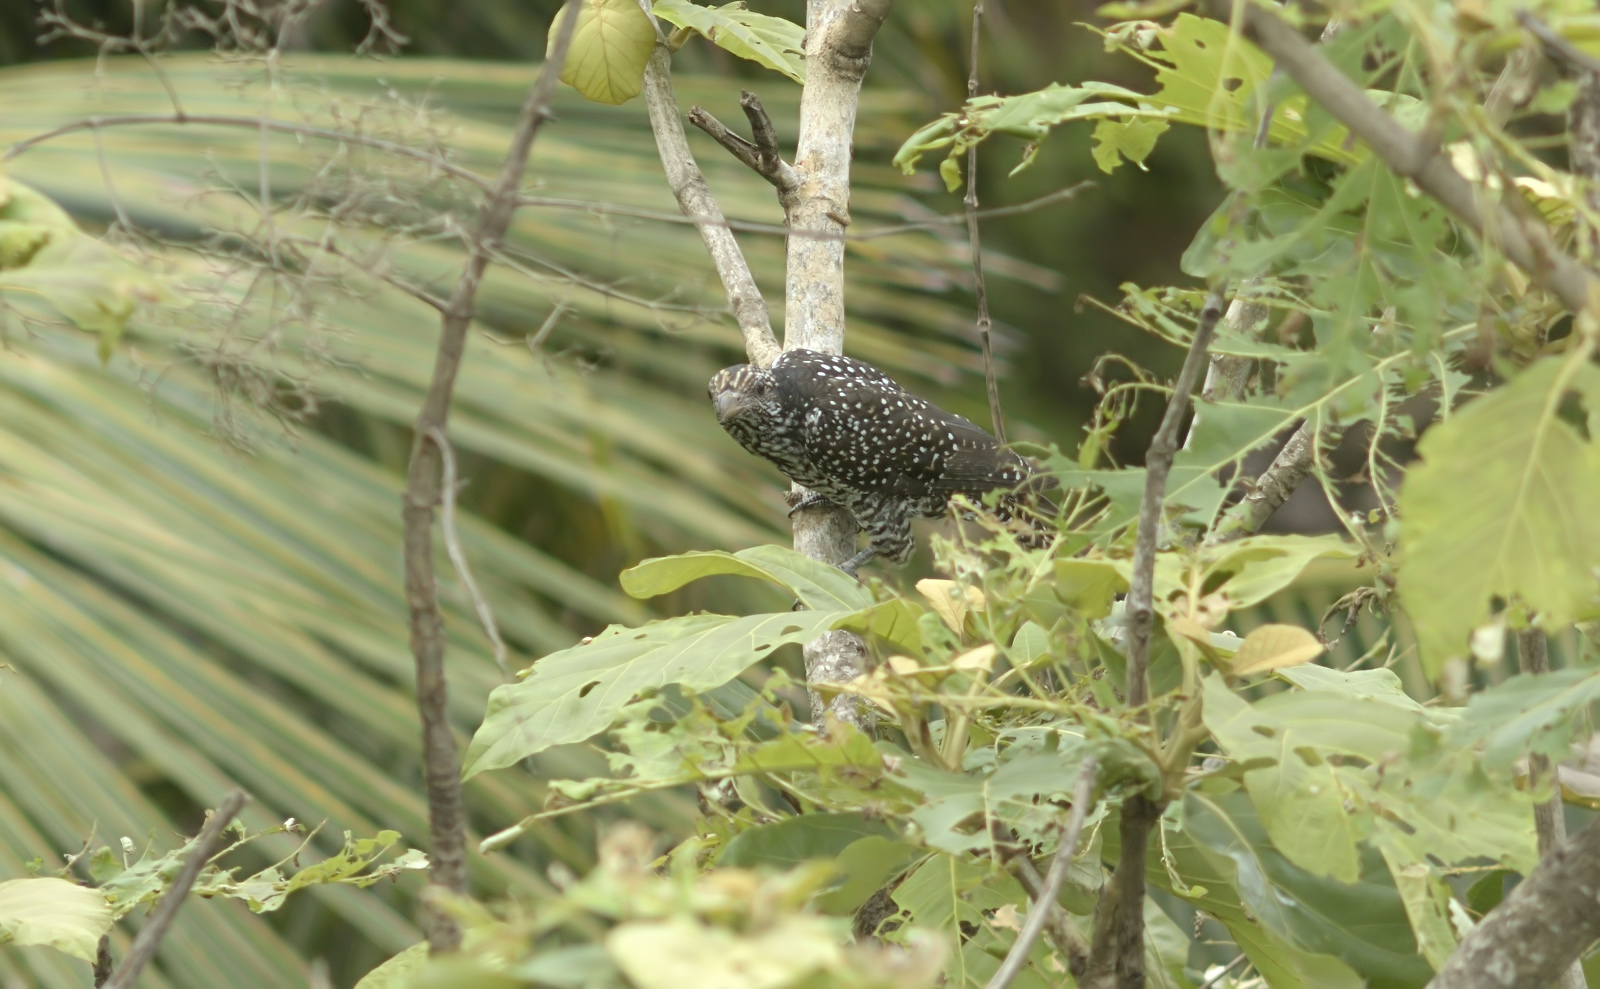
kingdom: Animalia
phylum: Chordata
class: Aves
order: Cuculiformes
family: Cuculidae
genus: Eudynamys
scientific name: Eudynamys scolopaceus
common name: Asian koel
